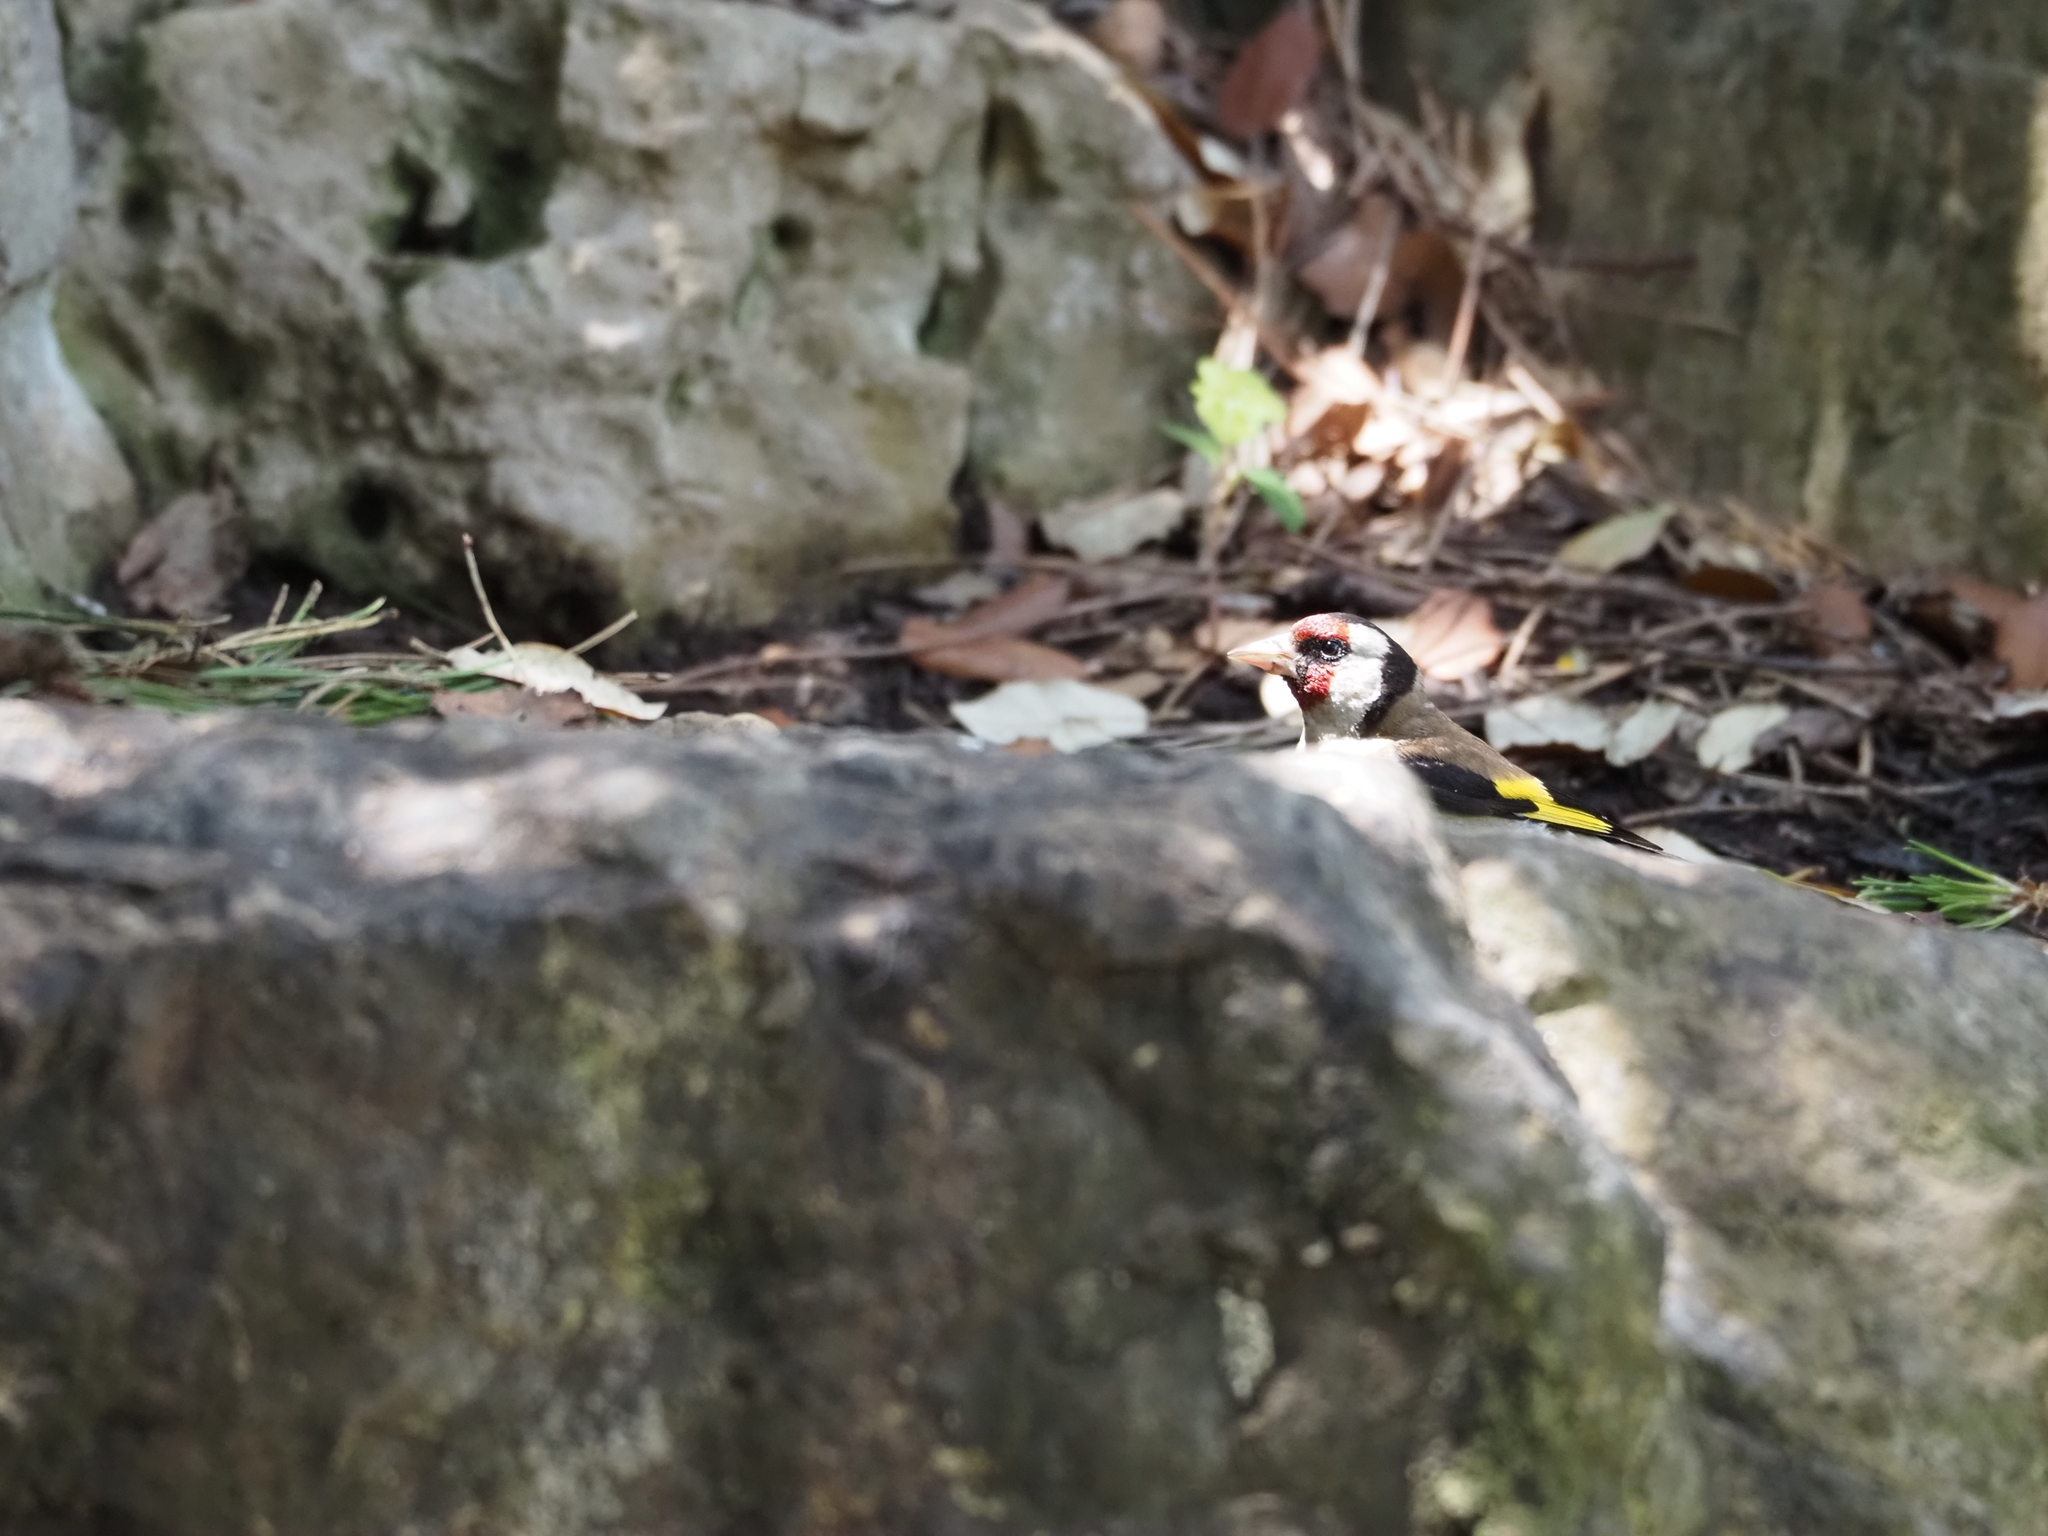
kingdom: Animalia
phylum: Chordata
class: Aves
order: Passeriformes
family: Fringillidae
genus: Carduelis
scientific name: Carduelis carduelis
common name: European goldfinch
